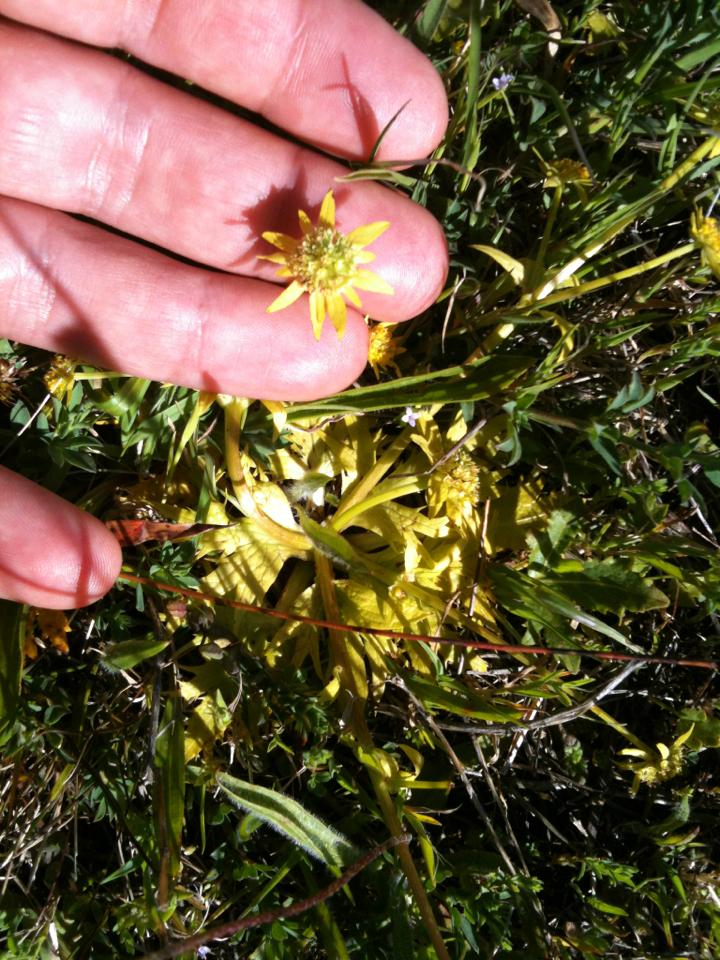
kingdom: Plantae
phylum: Tracheophyta
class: Magnoliopsida
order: Apiales
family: Apiaceae
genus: Sanicula
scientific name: Sanicula arctopoides
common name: Footsteps-of-spring
